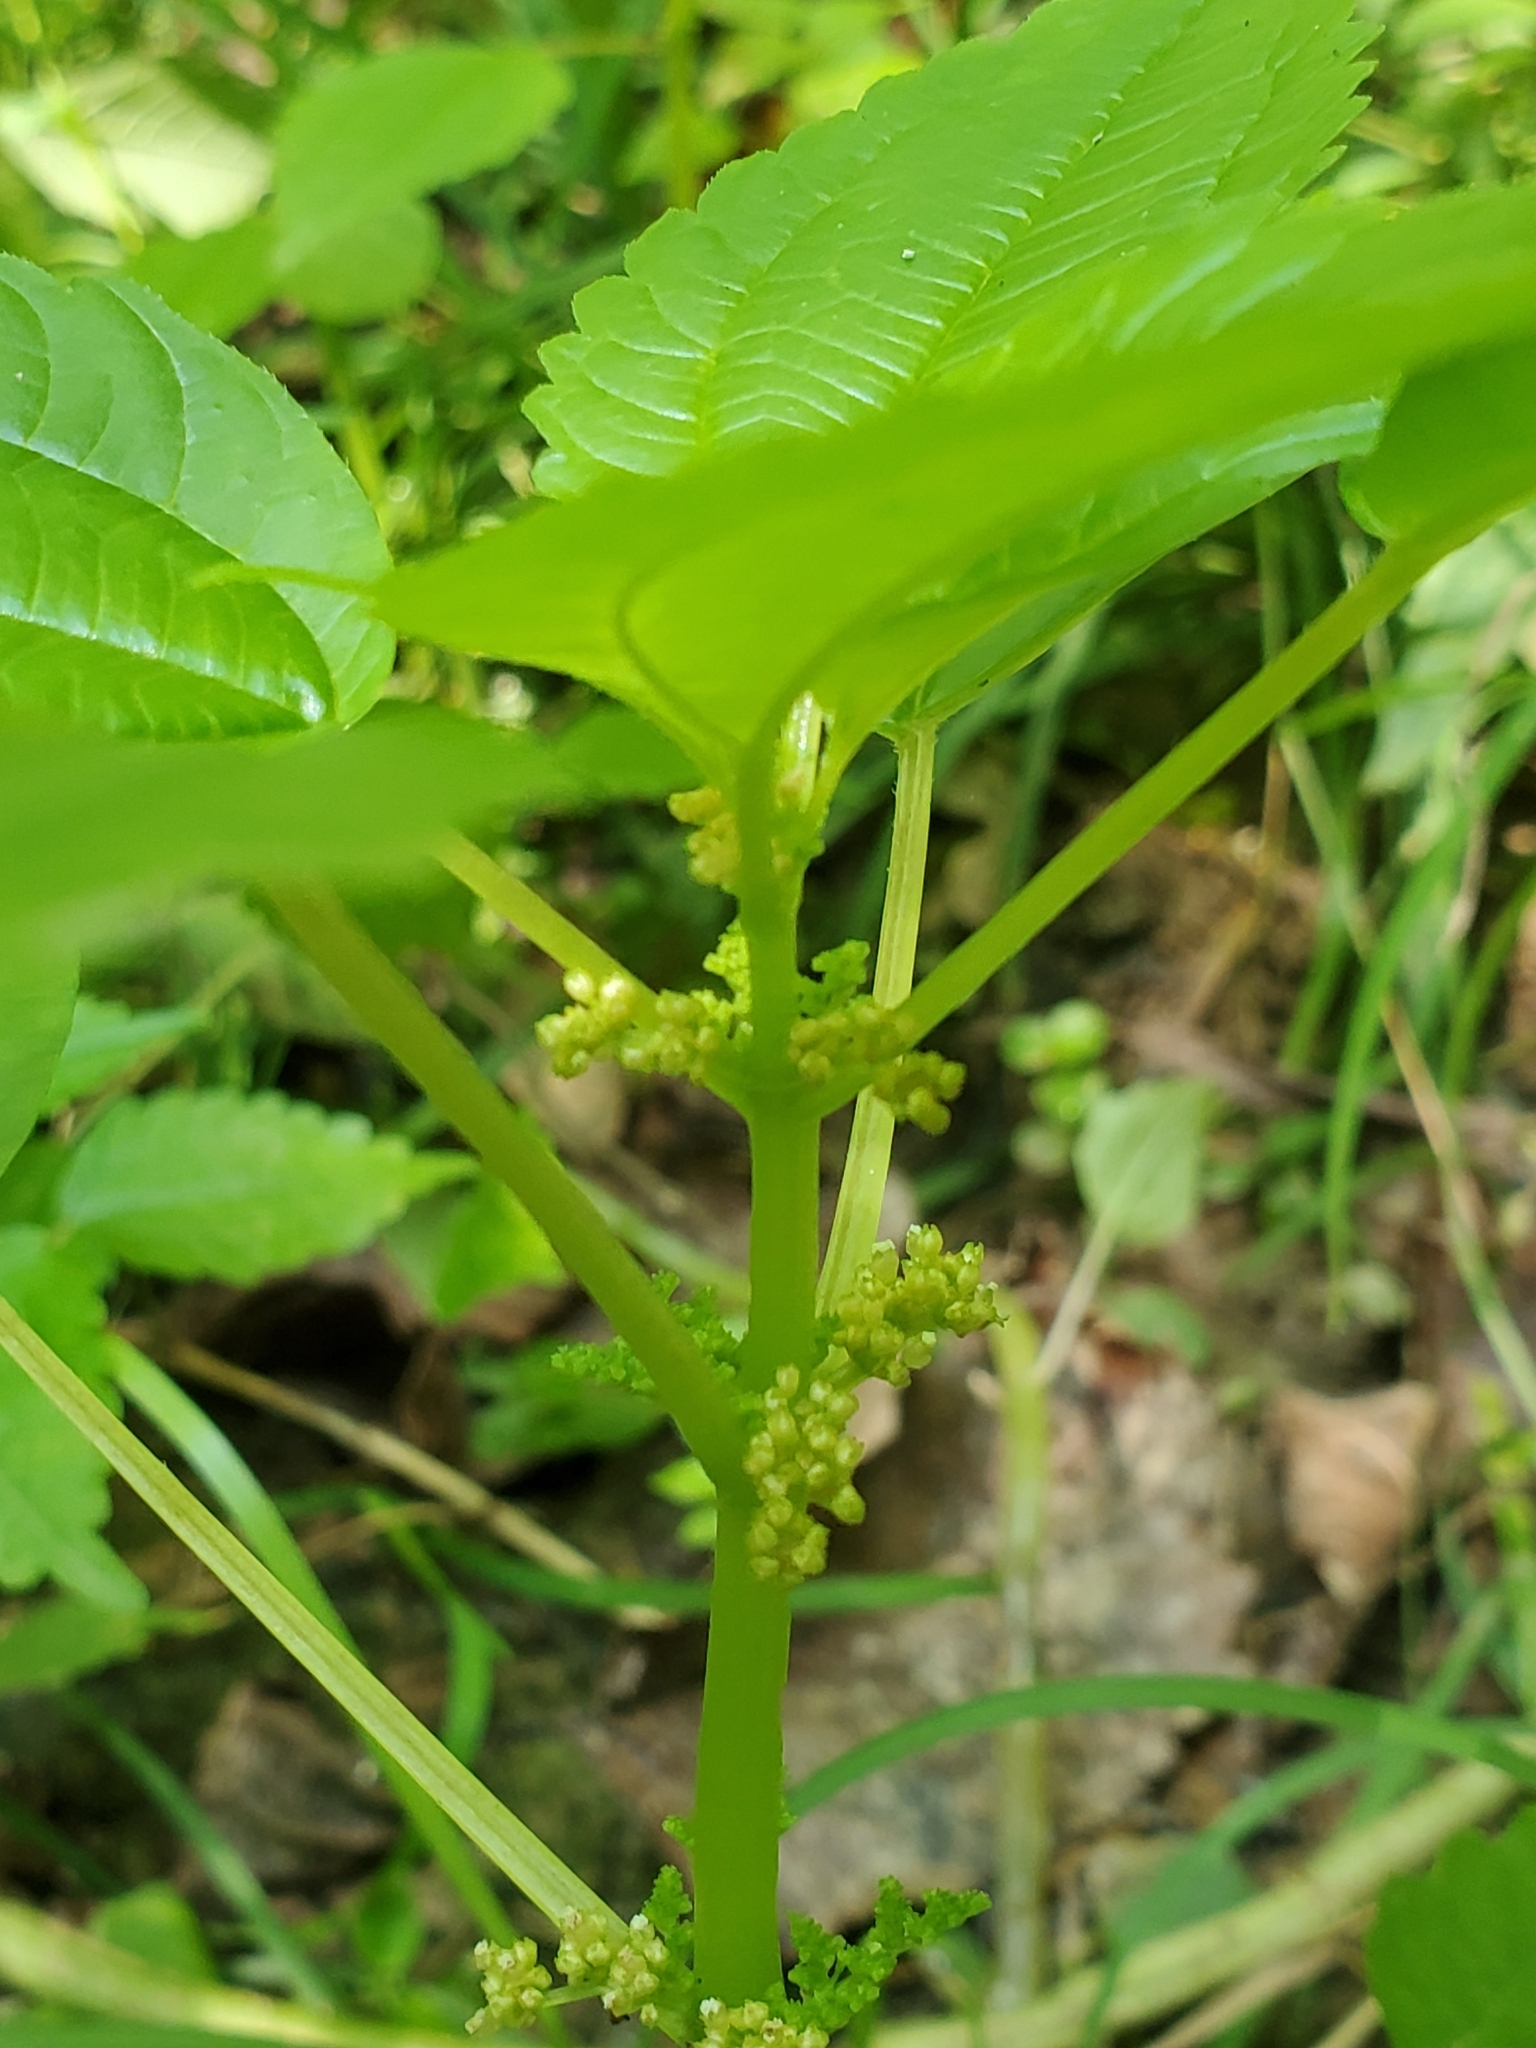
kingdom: Plantae
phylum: Tracheophyta
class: Magnoliopsida
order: Rosales
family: Urticaceae
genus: Pilea
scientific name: Pilea pumila
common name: Clearweed
